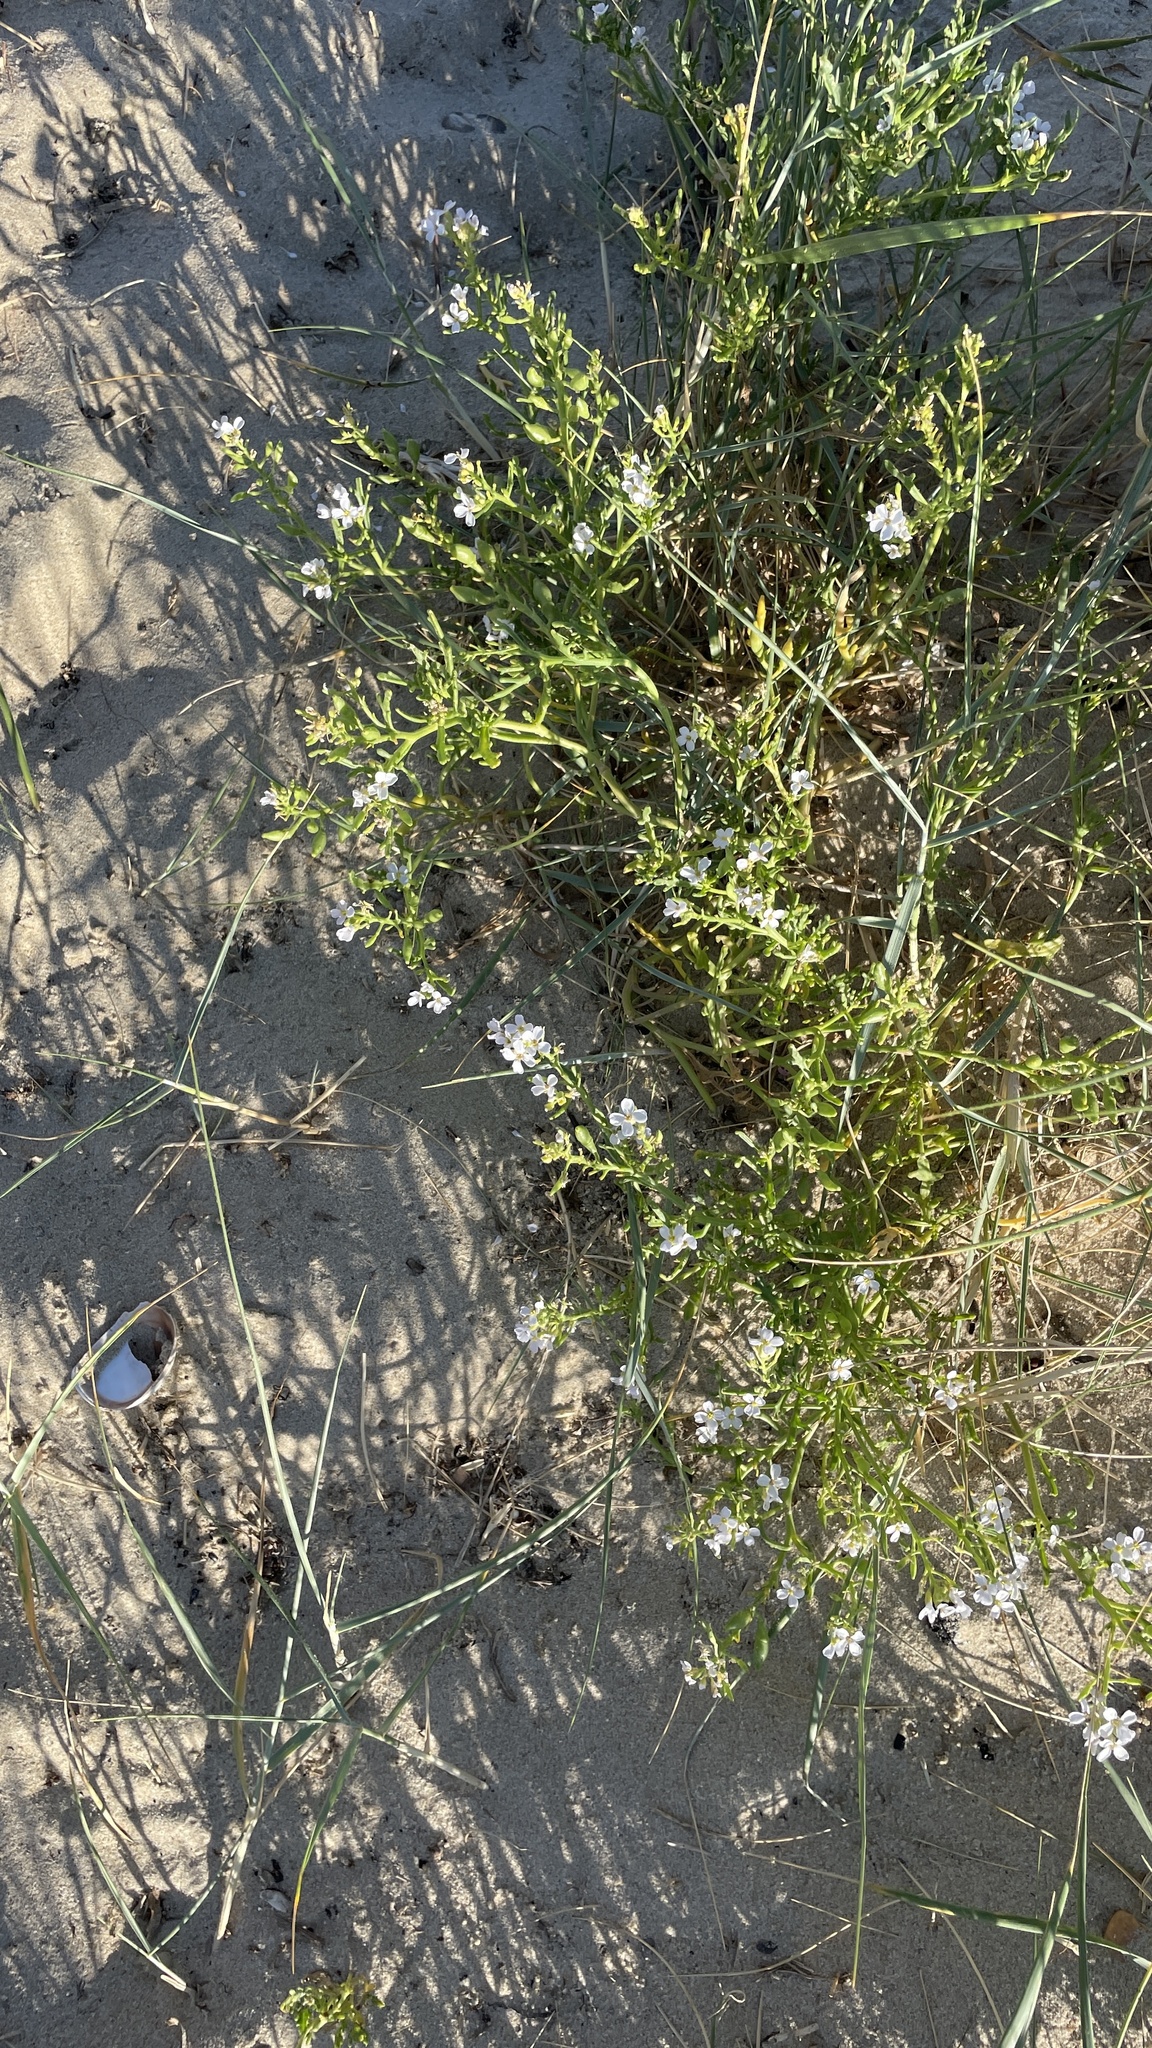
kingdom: Plantae
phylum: Tracheophyta
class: Magnoliopsida
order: Brassicales
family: Brassicaceae
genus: Cakile
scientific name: Cakile maritima
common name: Sea rocket
